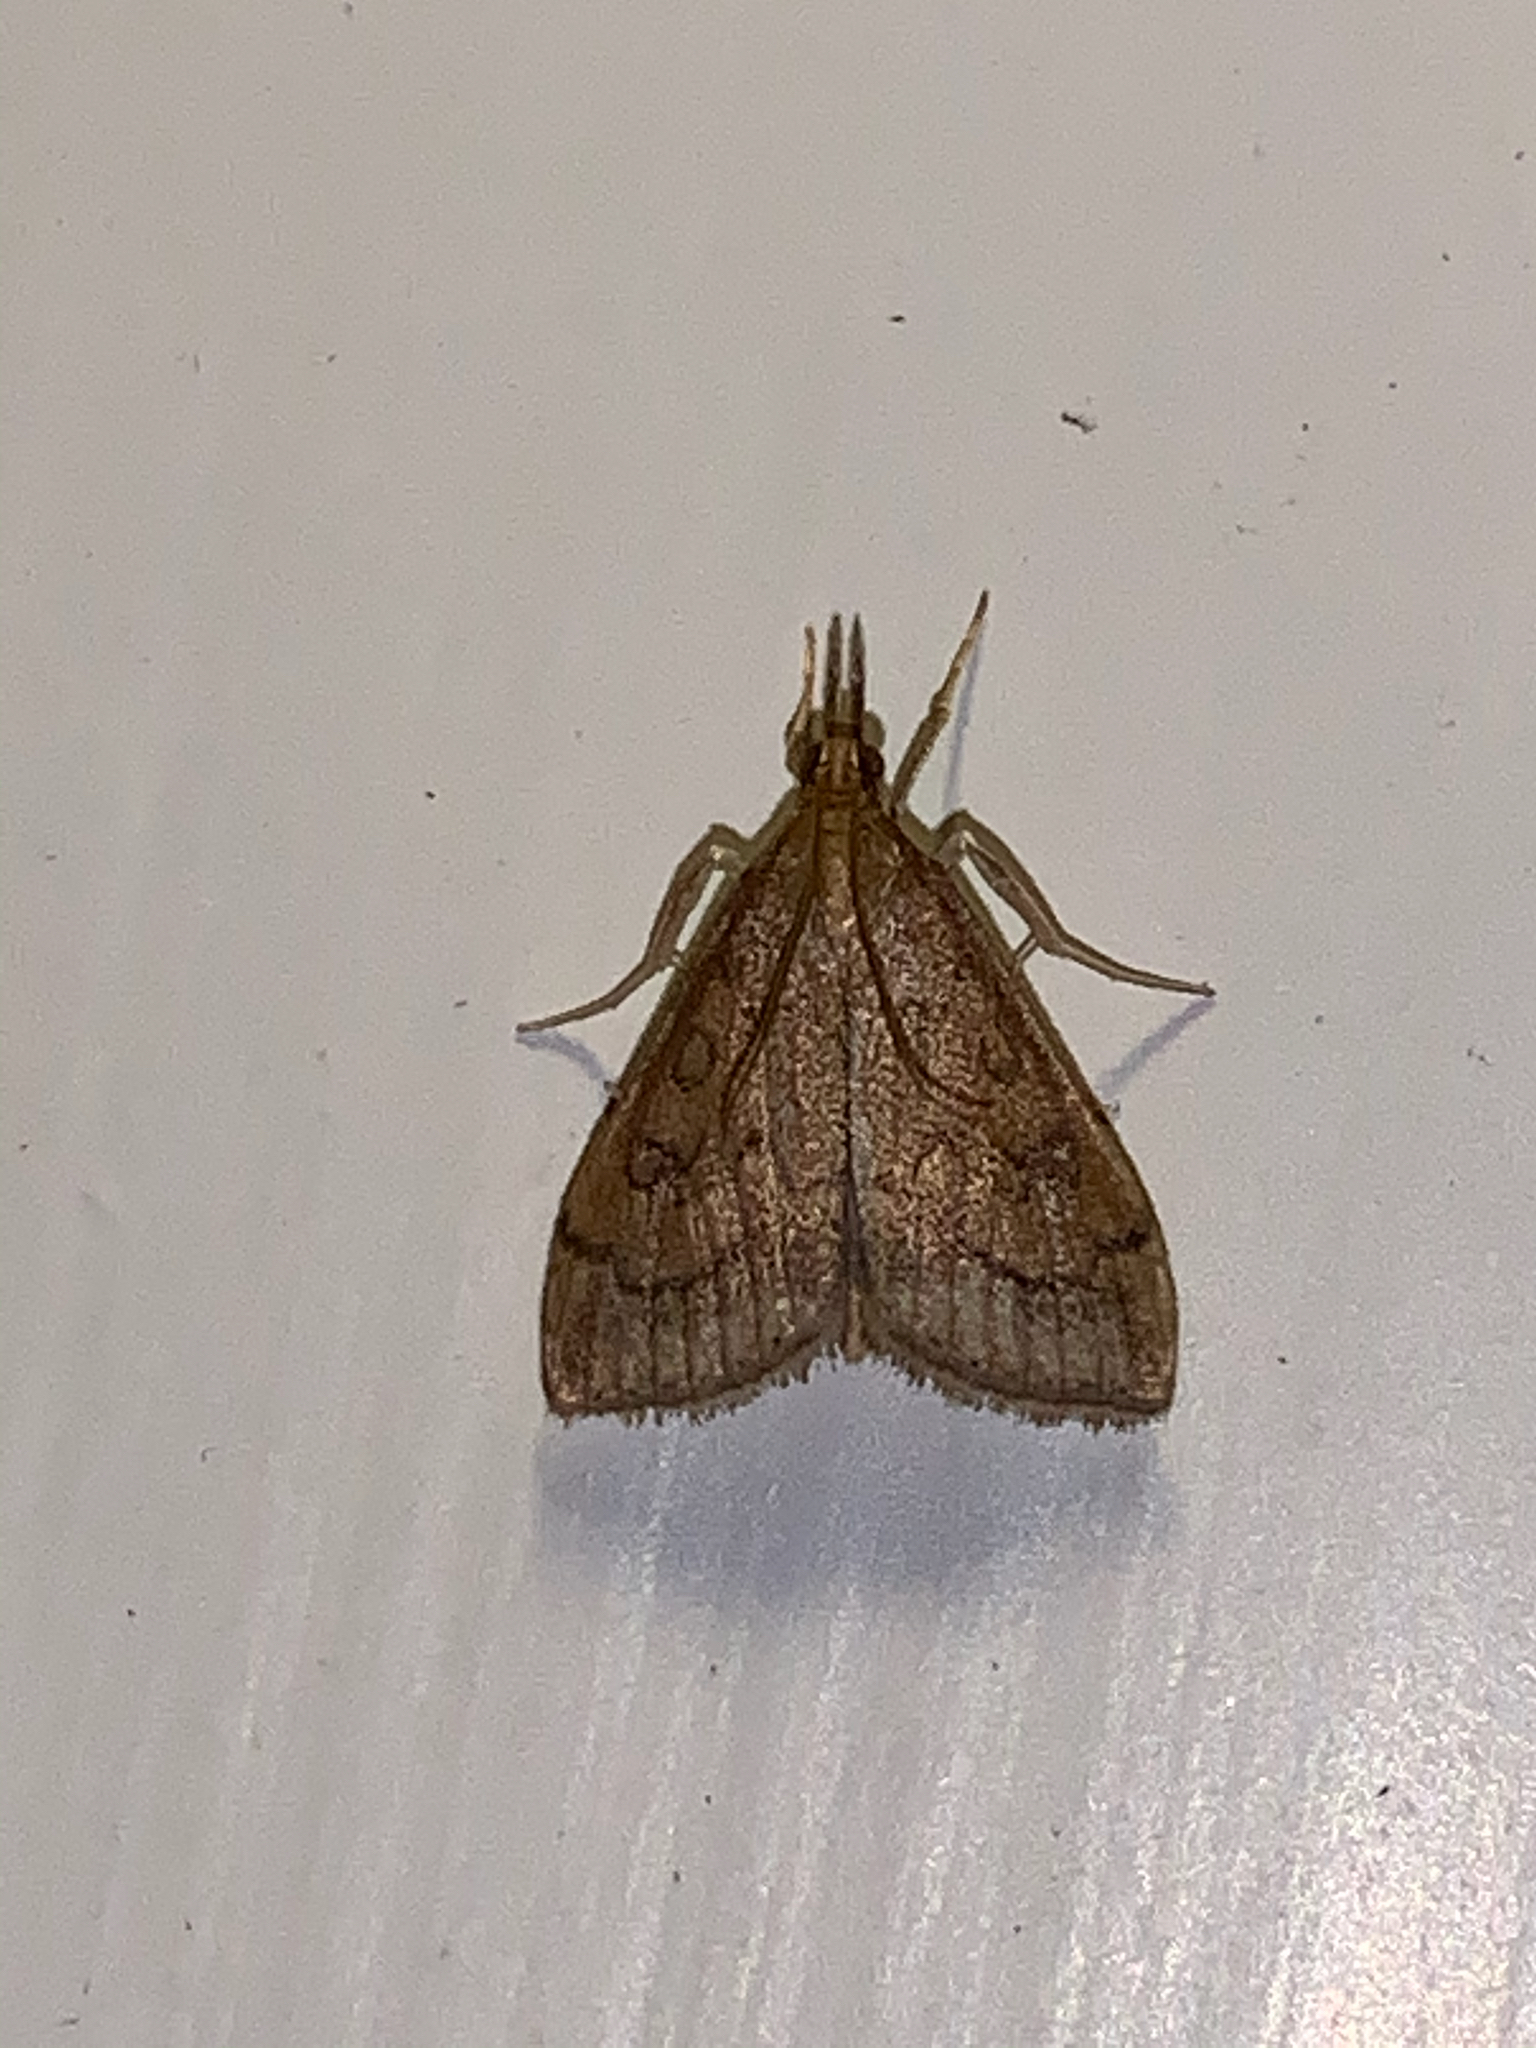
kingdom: Animalia
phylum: Arthropoda
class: Insecta
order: Lepidoptera
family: Crambidae
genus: Udea
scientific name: Udea rubigalis
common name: Celery leaftier moth
